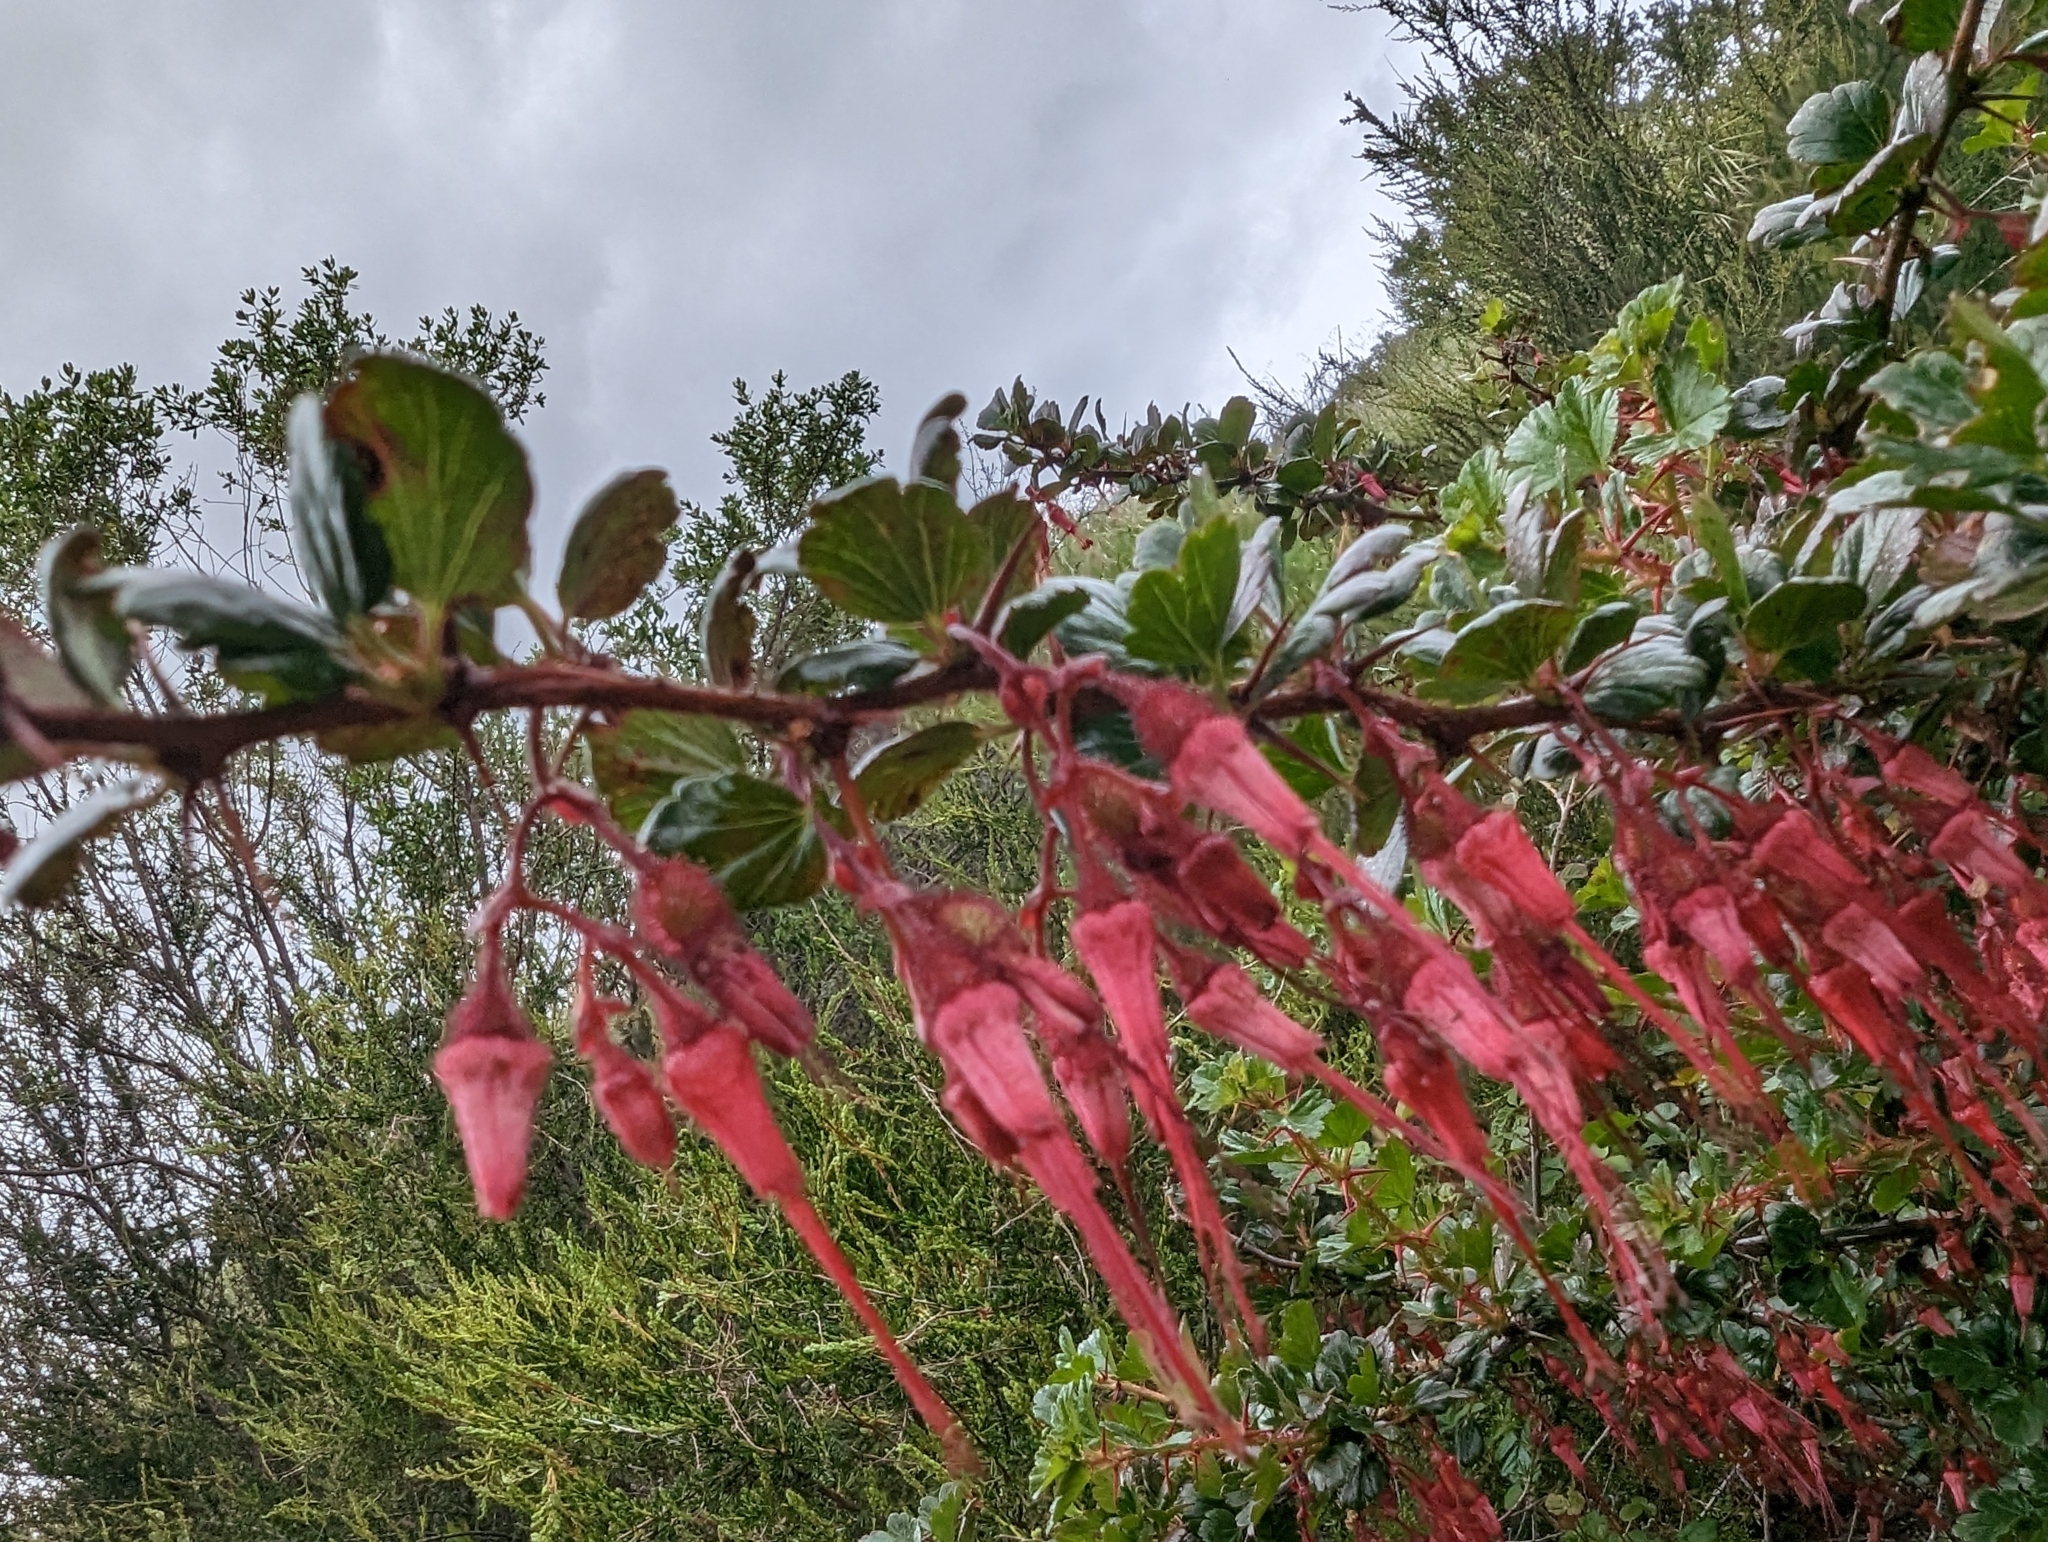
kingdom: Plantae
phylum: Tracheophyta
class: Magnoliopsida
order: Saxifragales
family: Grossulariaceae
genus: Ribes
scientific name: Ribes speciosum
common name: Fuchsia-flower gooseberry
